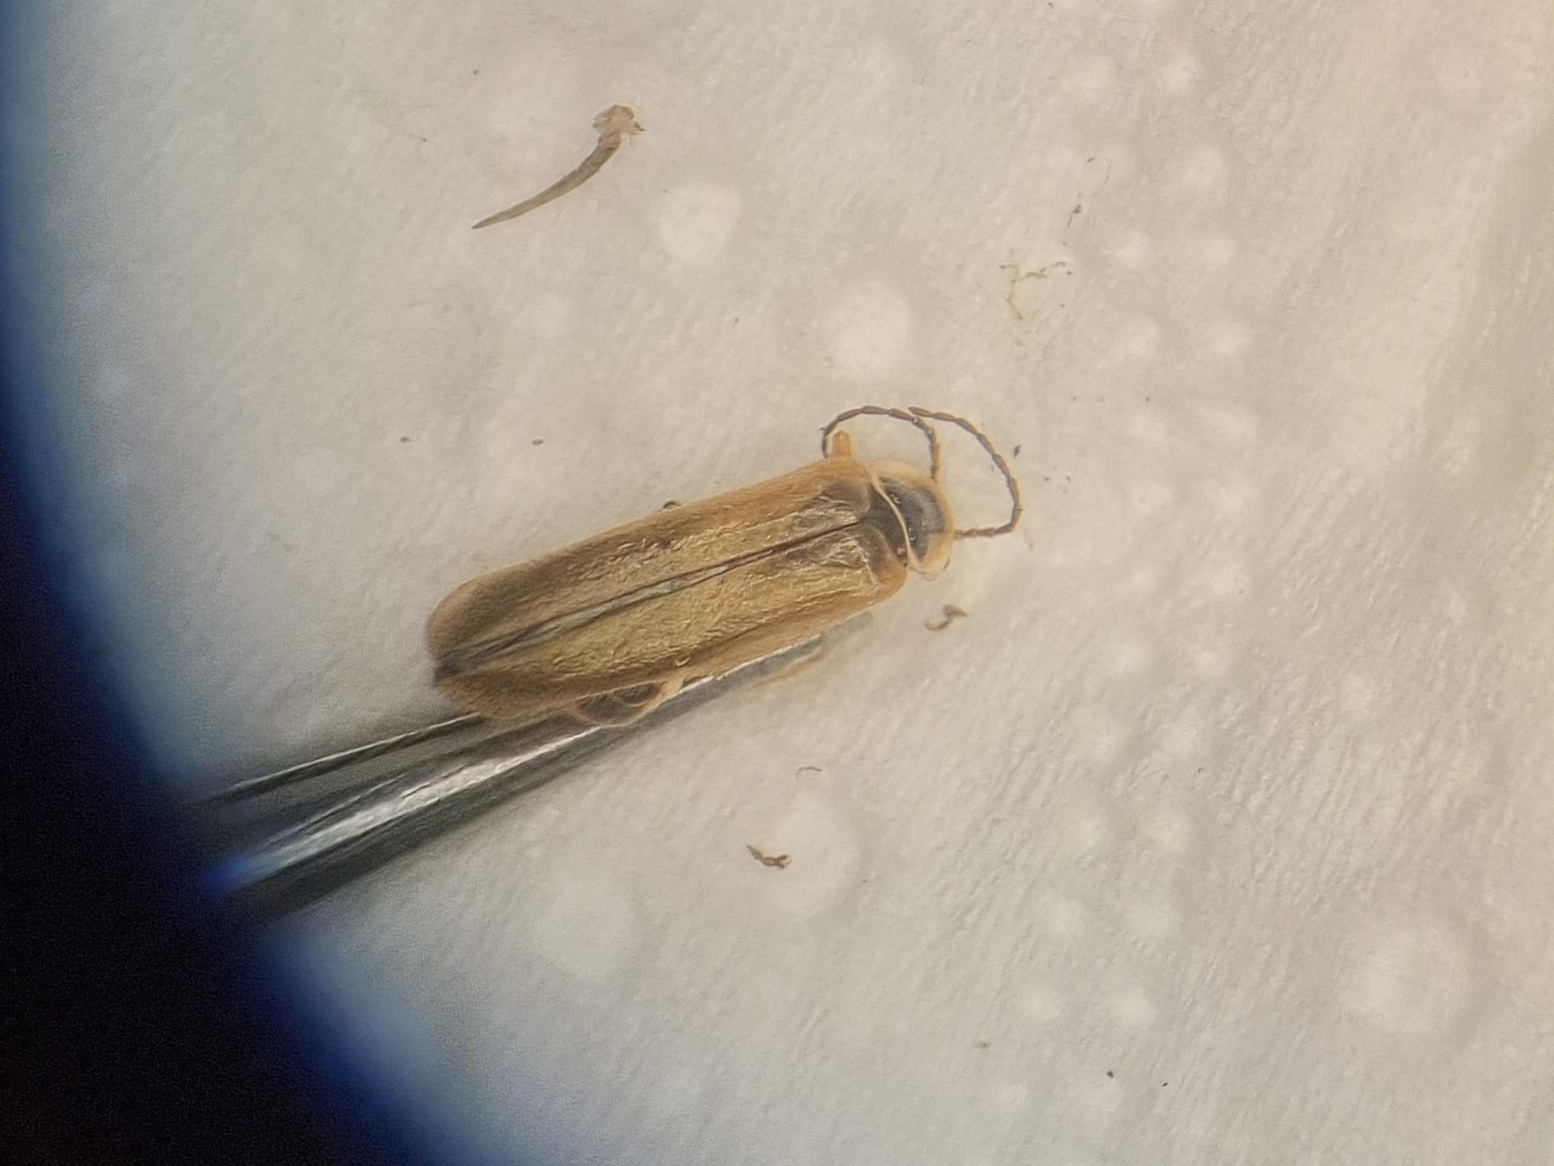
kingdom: Animalia
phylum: Arthropoda
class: Insecta
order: Coleoptera
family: Cantharidae
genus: Cantharis
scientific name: Cantharis decipiens
